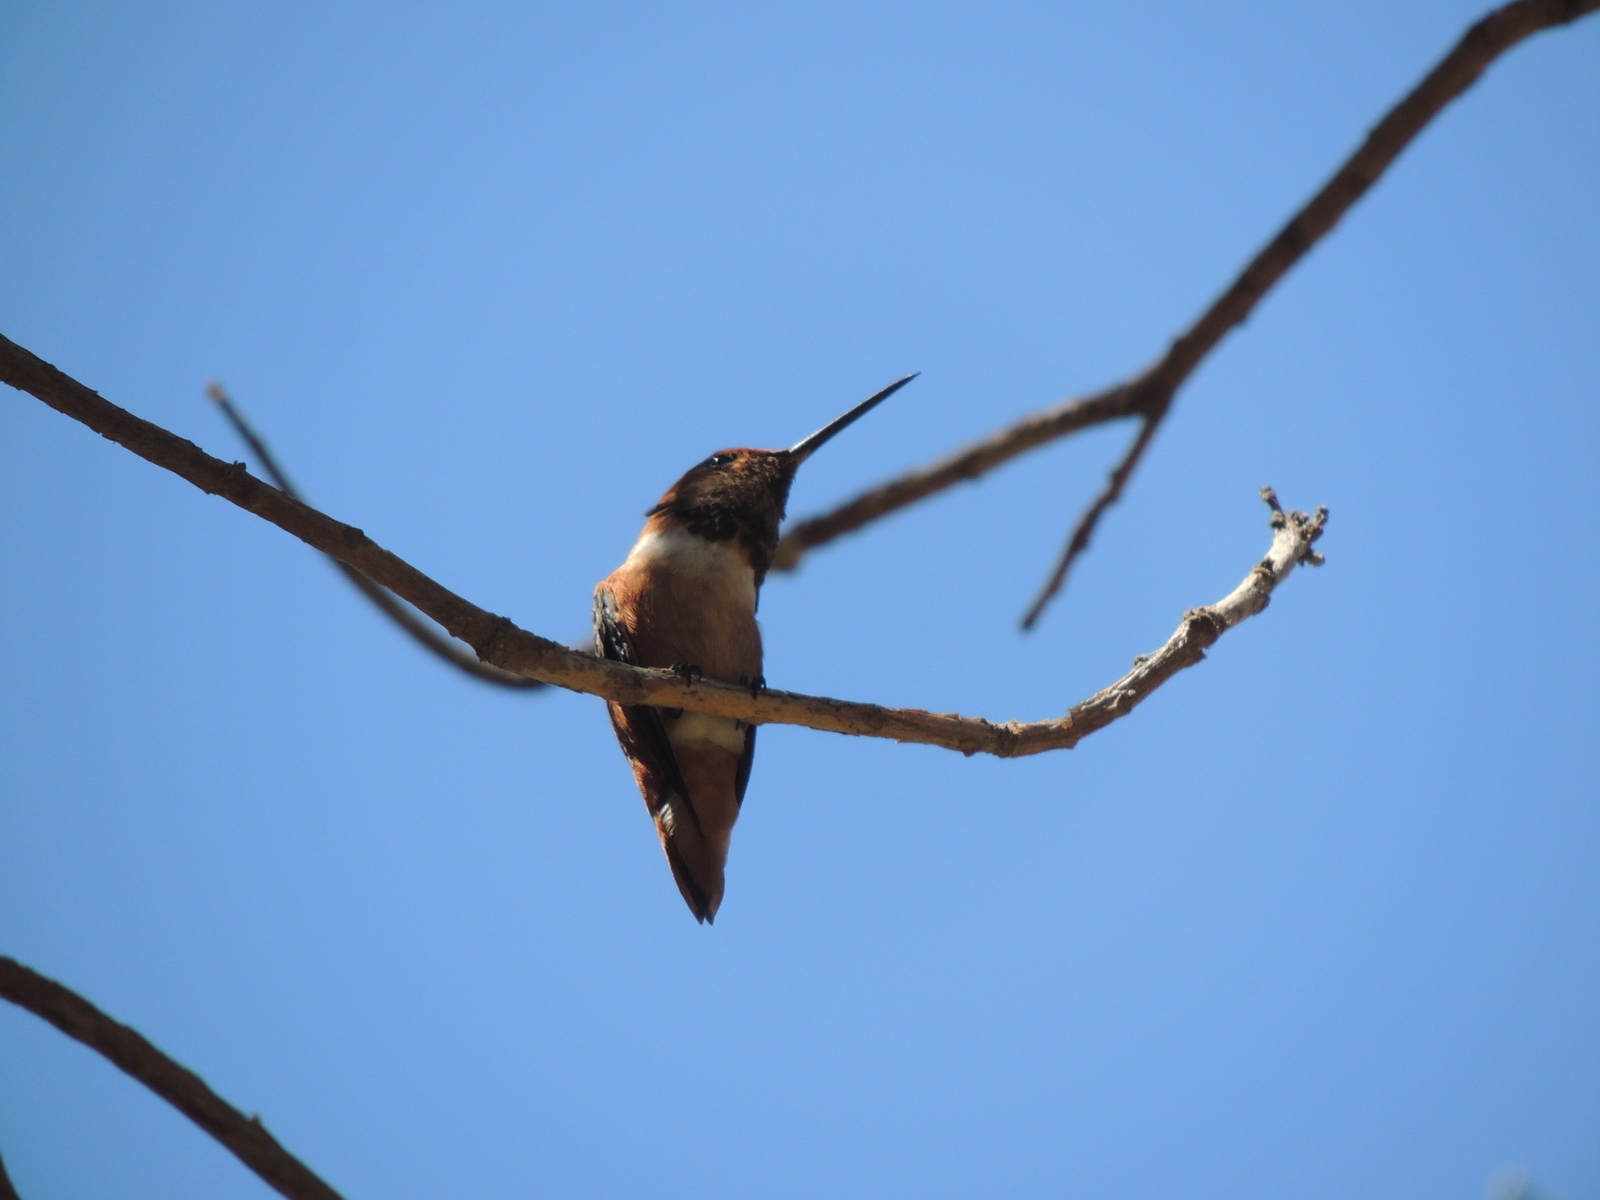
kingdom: Animalia
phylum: Chordata
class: Aves
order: Apodiformes
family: Trochilidae
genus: Selasphorus
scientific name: Selasphorus sasin
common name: Allen's hummingbird
